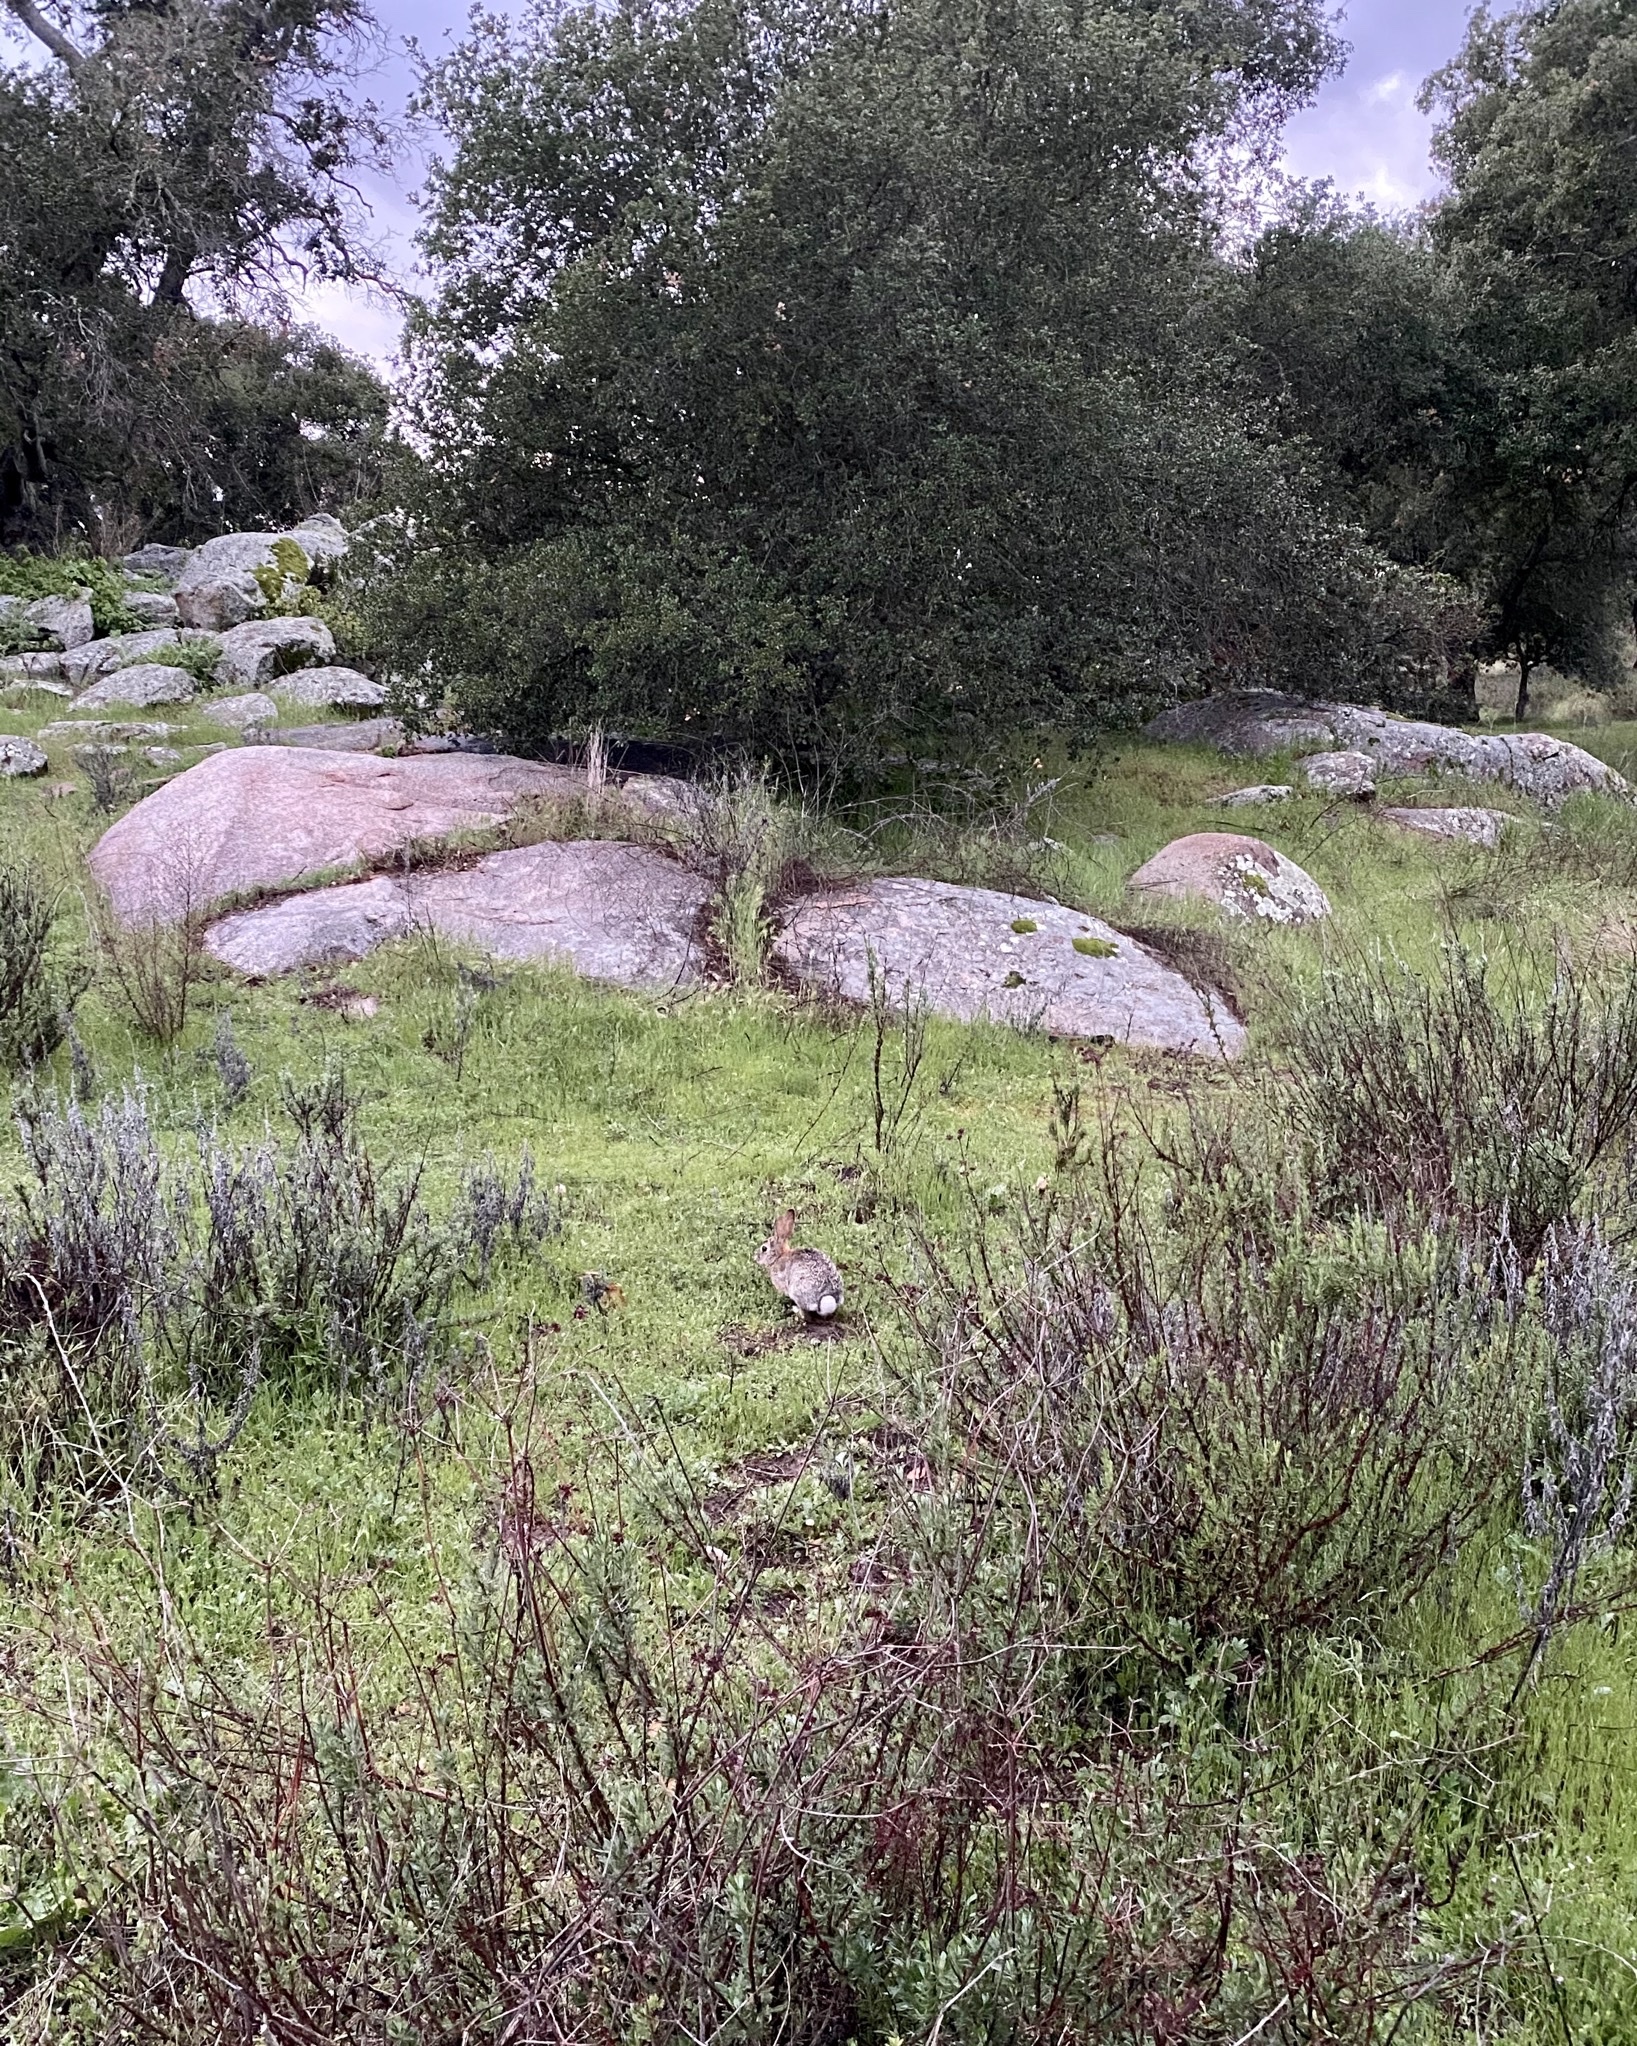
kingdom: Animalia
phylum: Chordata
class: Mammalia
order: Lagomorpha
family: Leporidae
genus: Sylvilagus
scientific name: Sylvilagus audubonii
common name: Desert cottontail
